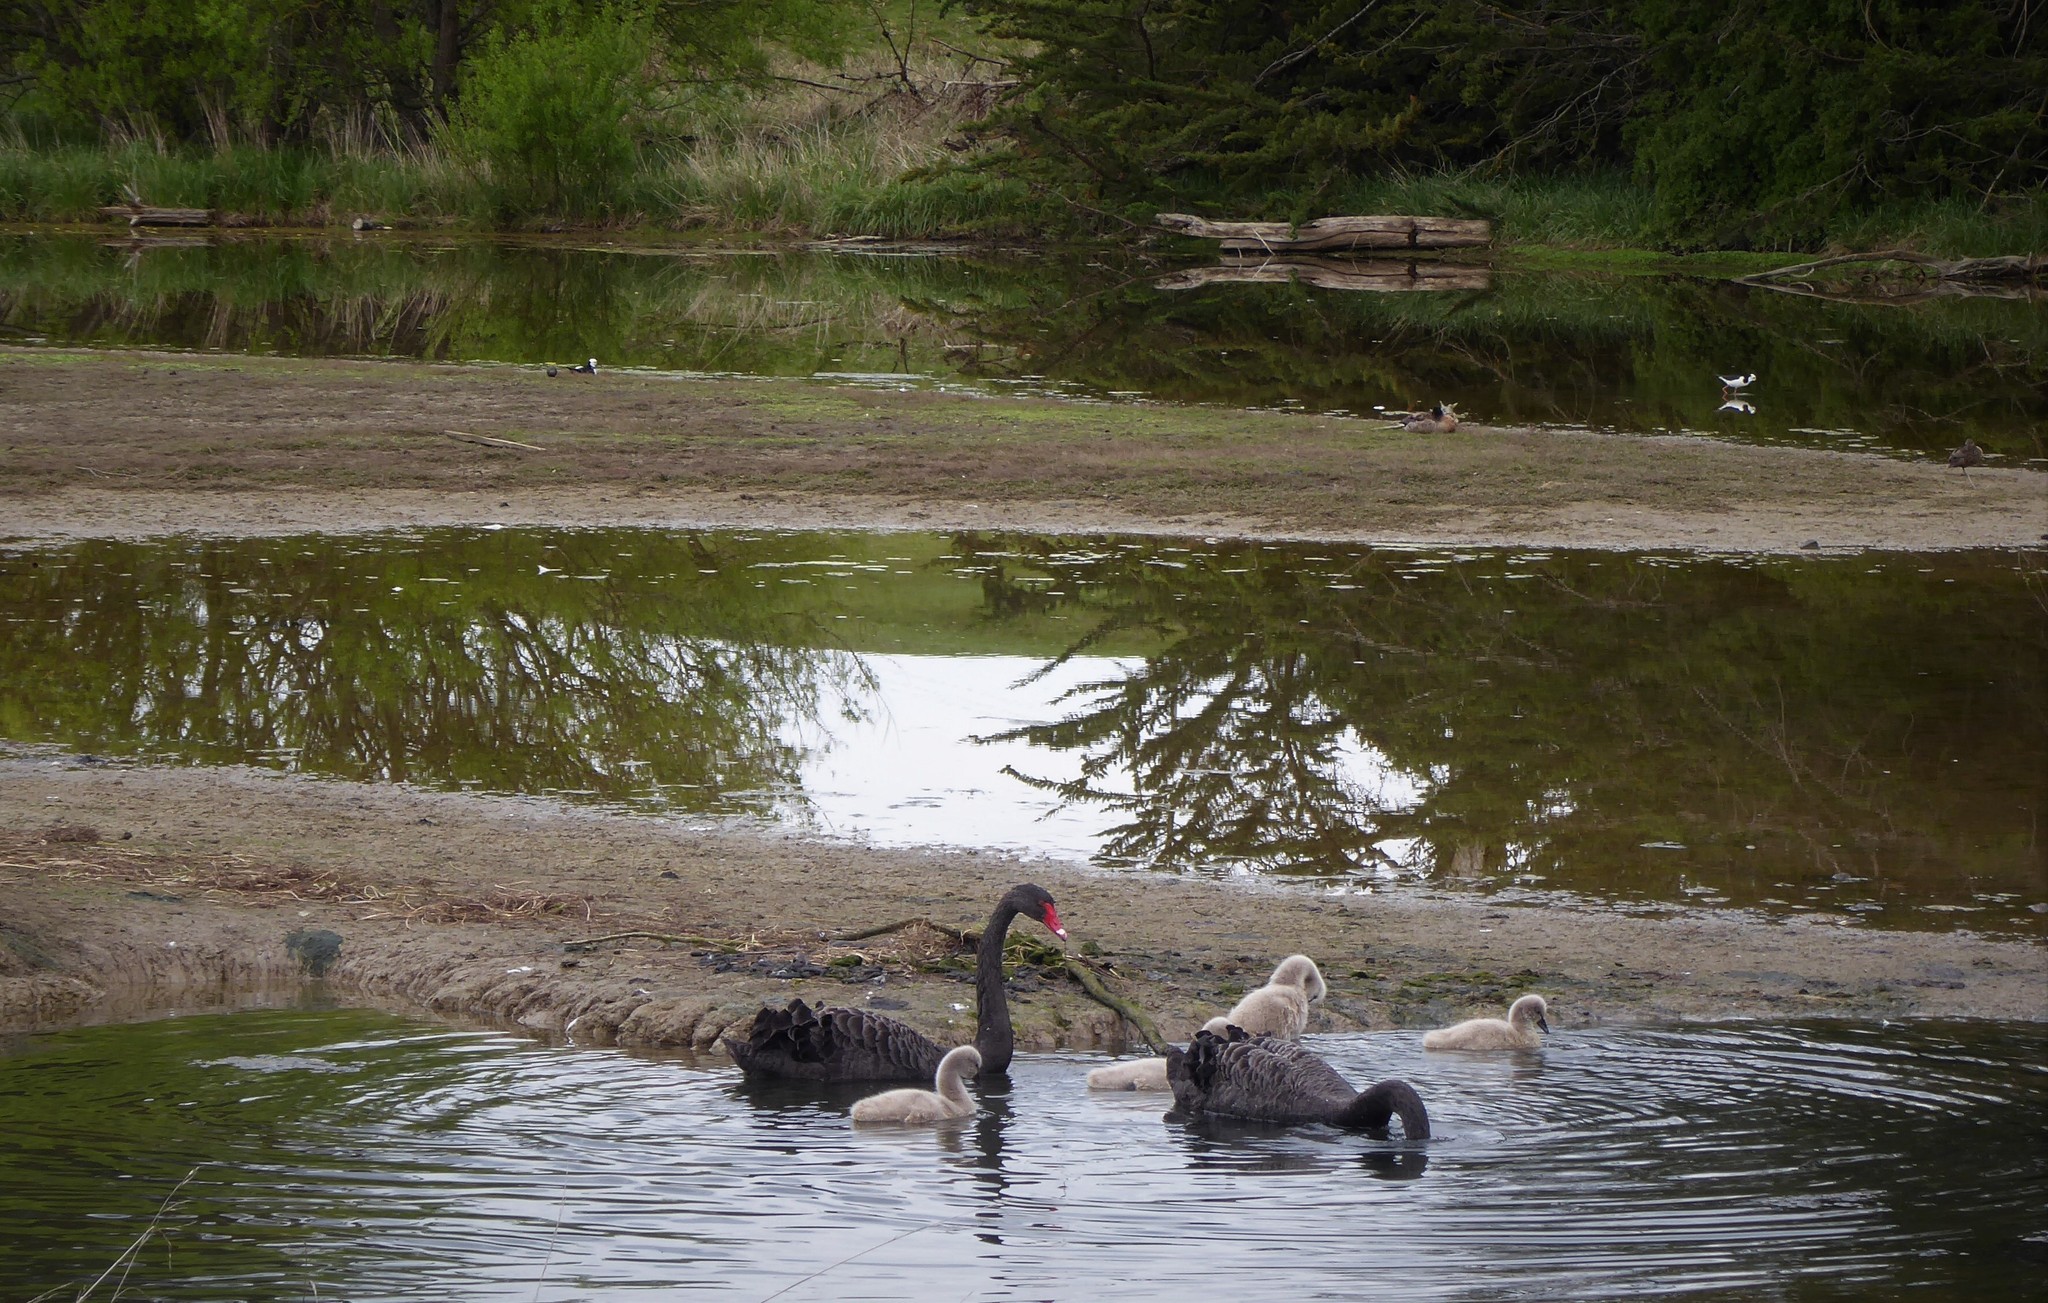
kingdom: Animalia
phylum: Chordata
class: Aves
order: Anseriformes
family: Anatidae
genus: Cygnus
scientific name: Cygnus atratus
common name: Black swan
